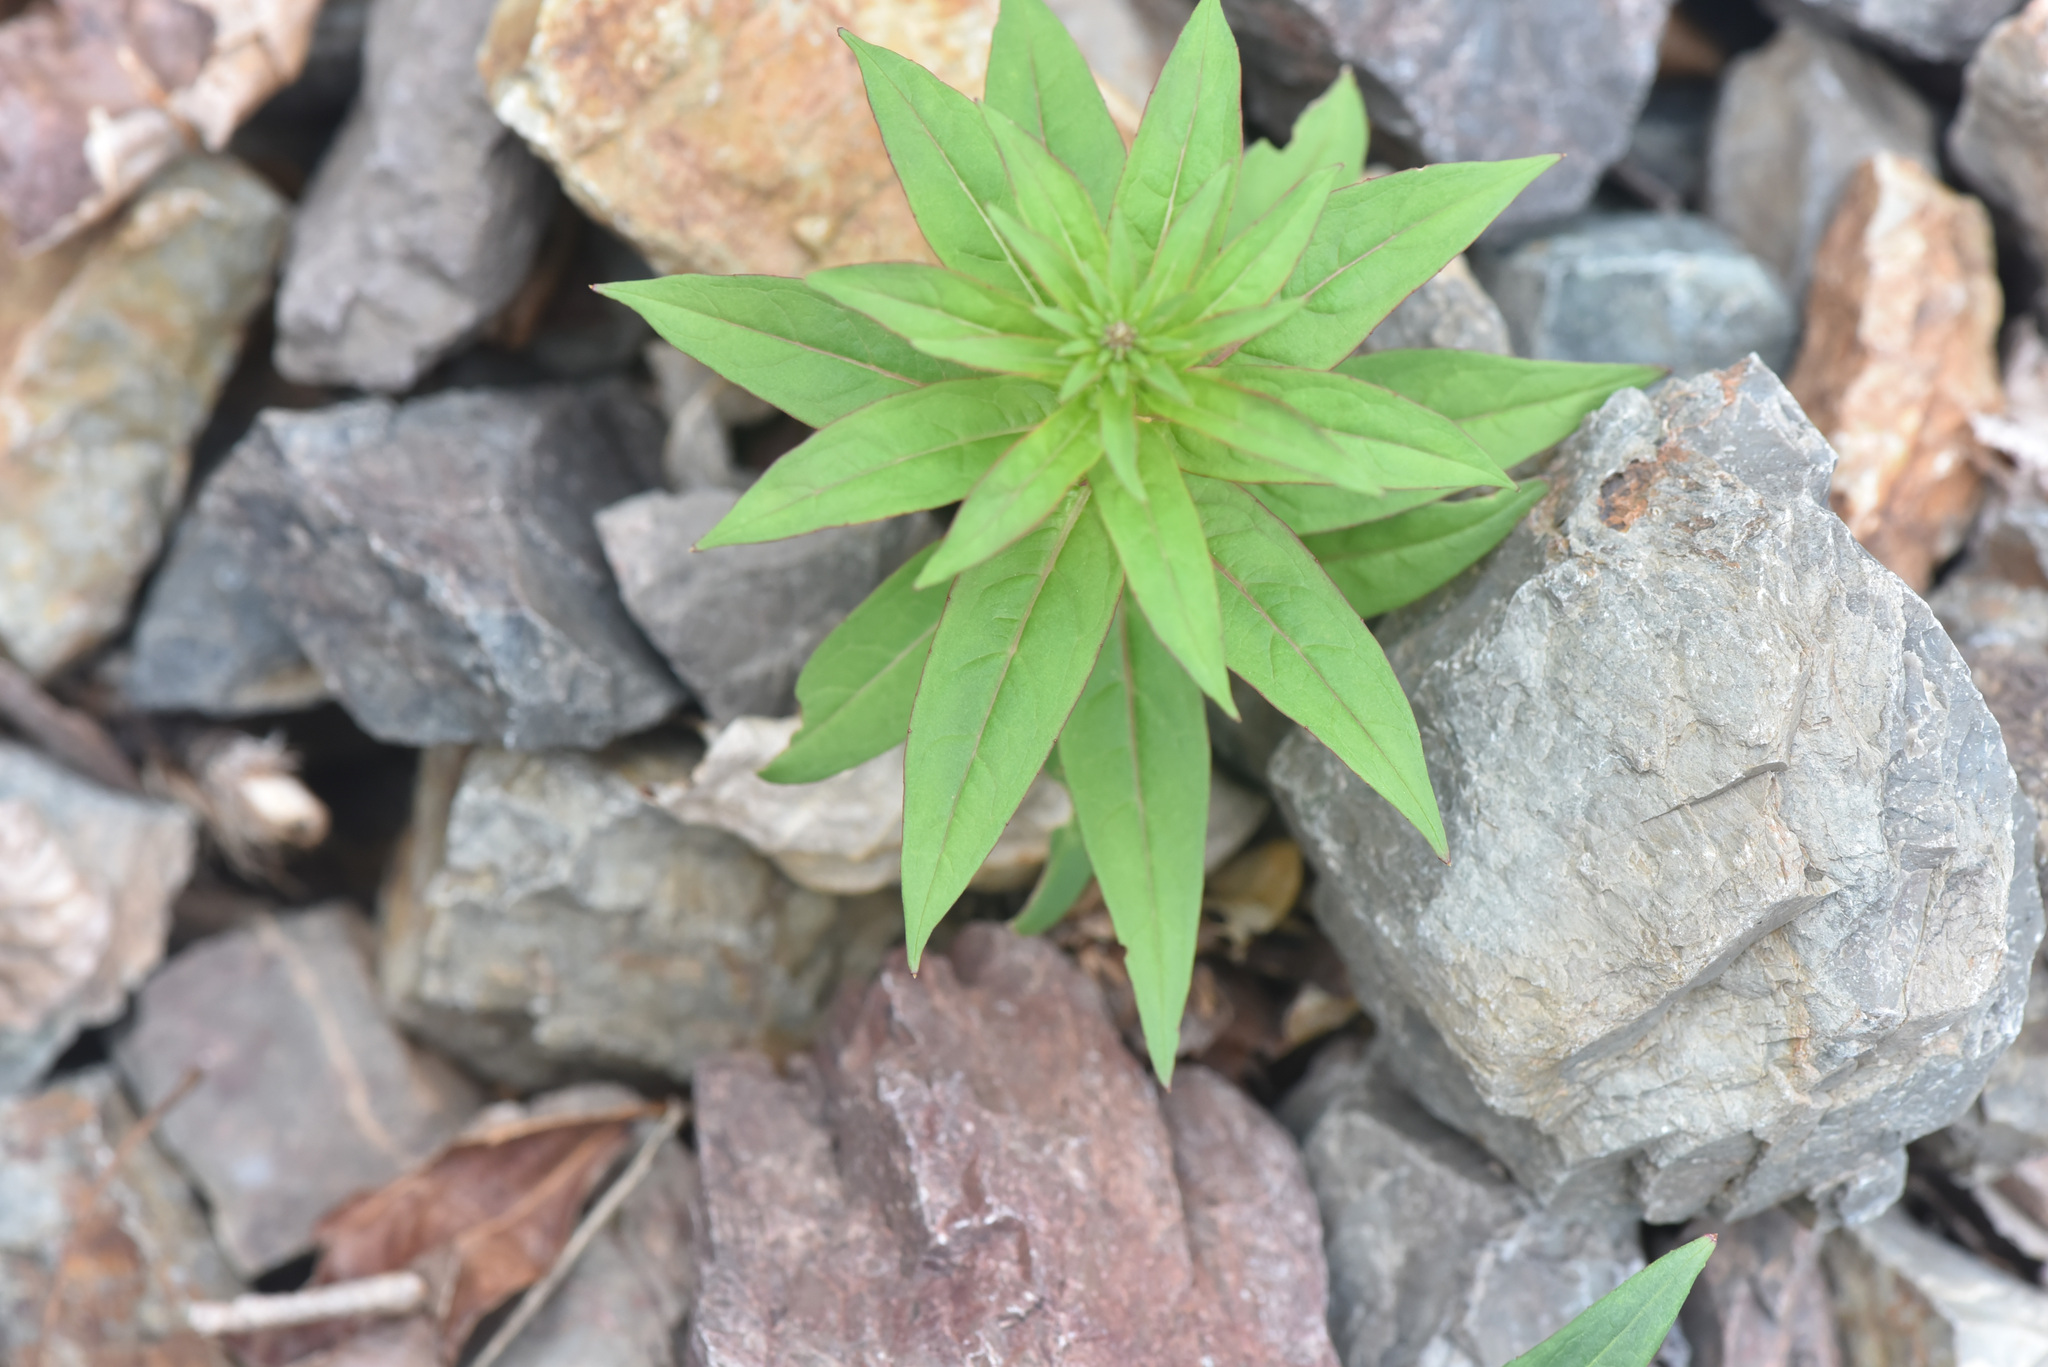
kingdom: Plantae
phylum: Tracheophyta
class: Magnoliopsida
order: Myrtales
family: Onagraceae
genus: Chamaenerion
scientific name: Chamaenerion angustifolium
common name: Fireweed
